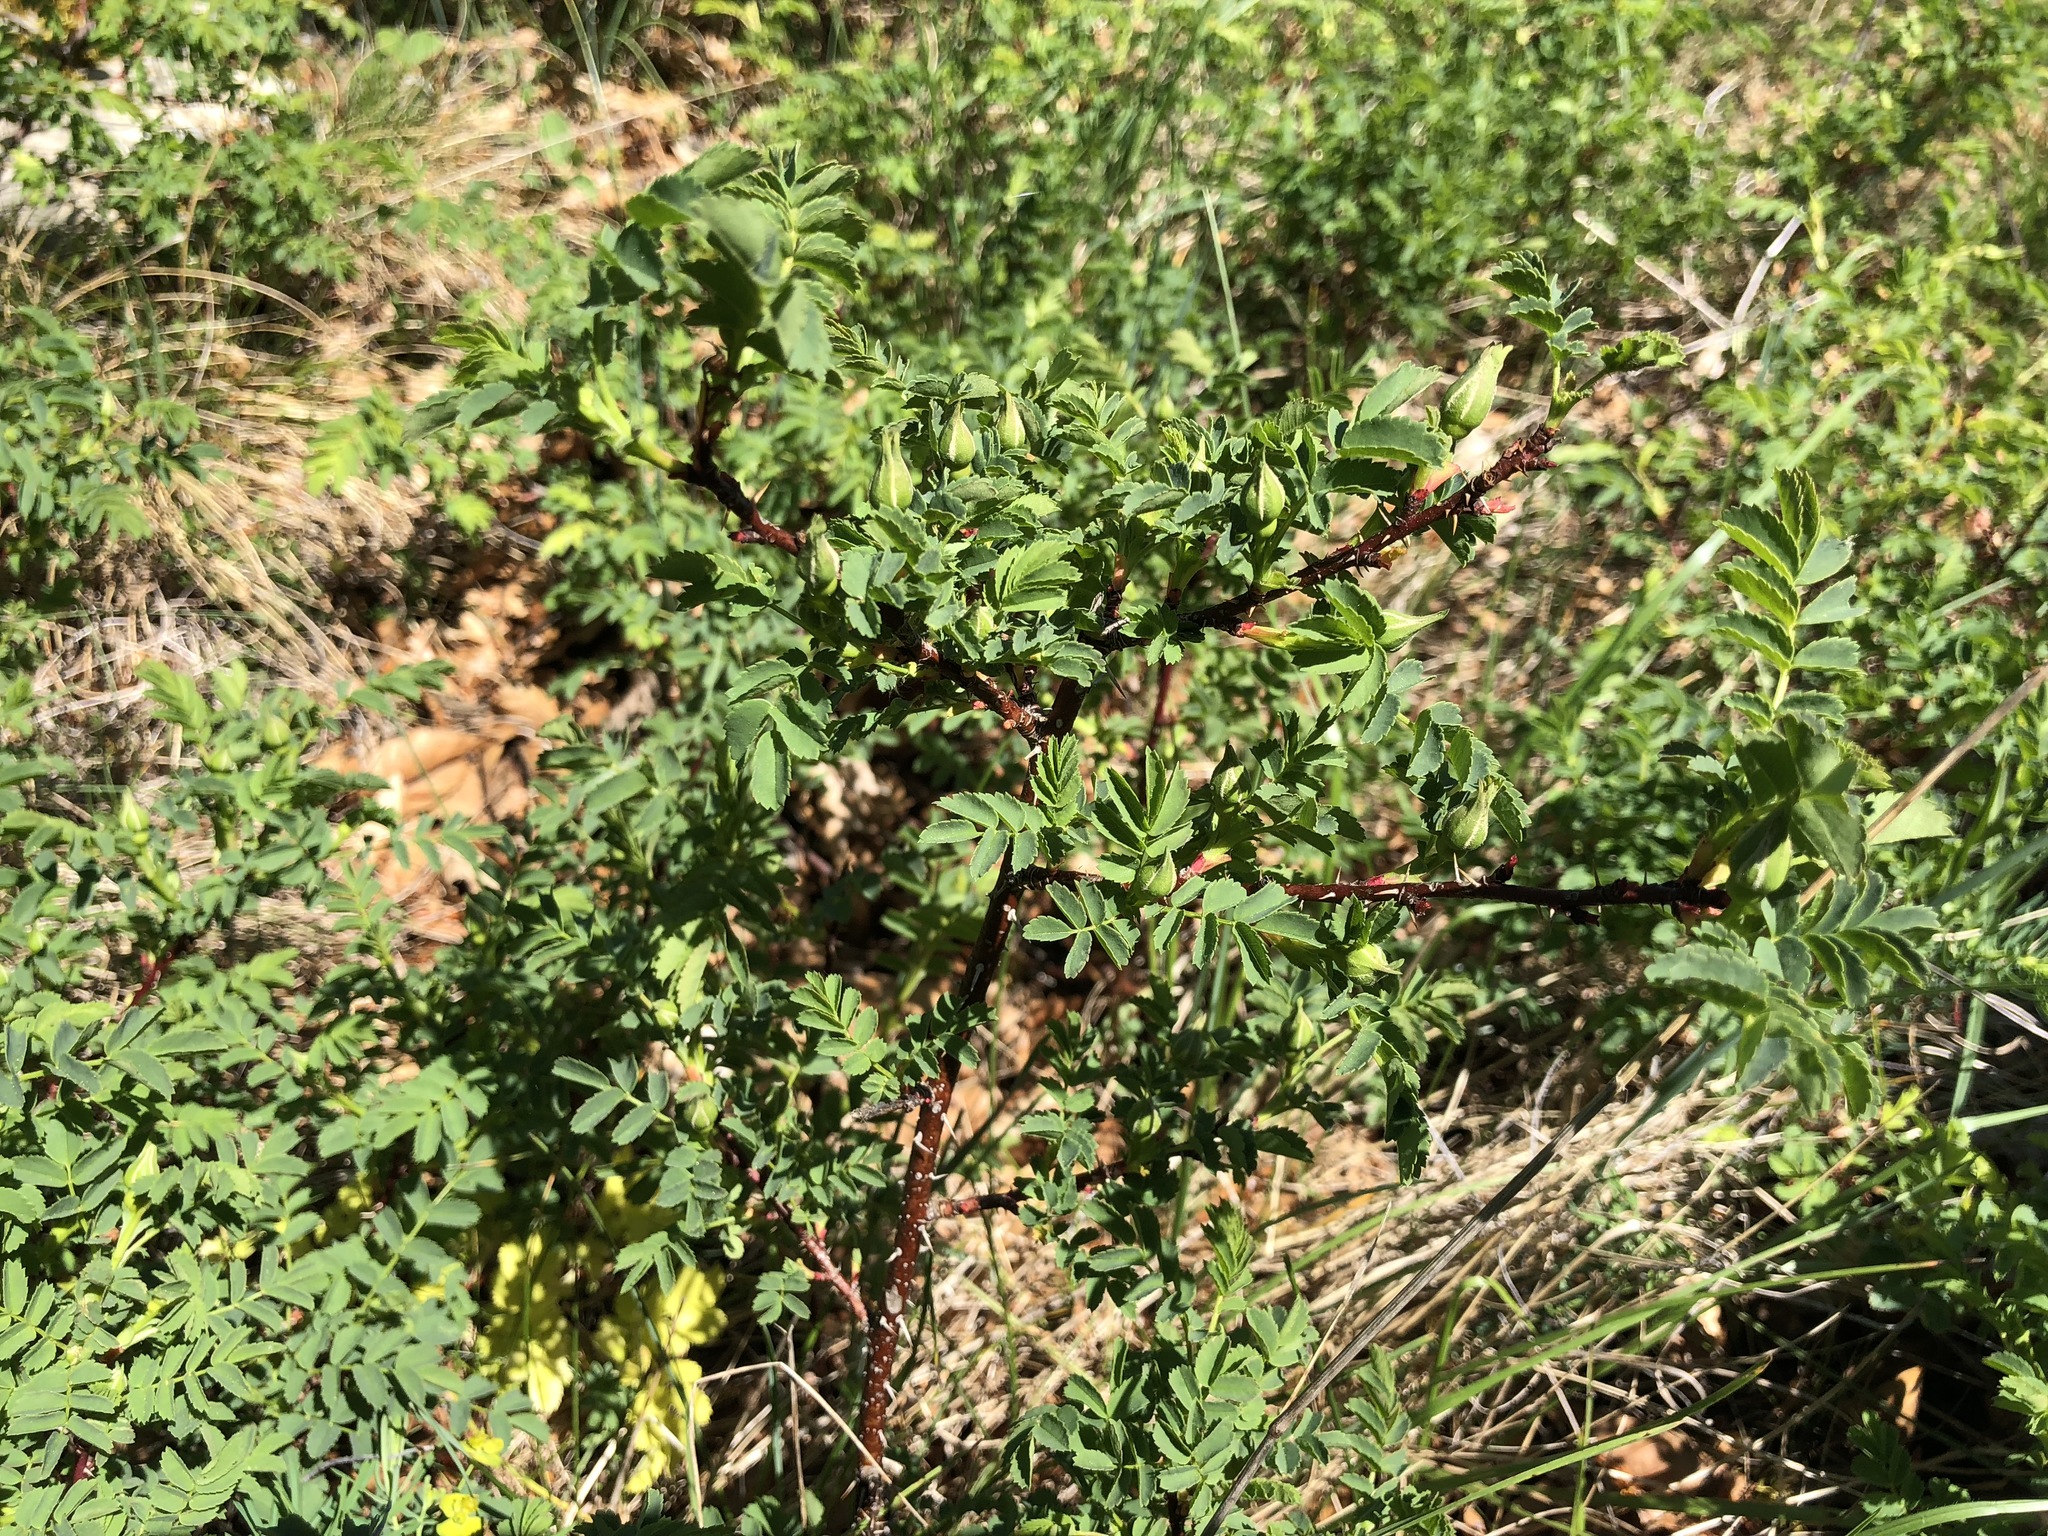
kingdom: Plantae
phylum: Tracheophyta
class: Magnoliopsida
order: Rosales
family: Rosaceae
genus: Rosa
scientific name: Rosa spinosissima
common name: Burnet rose
